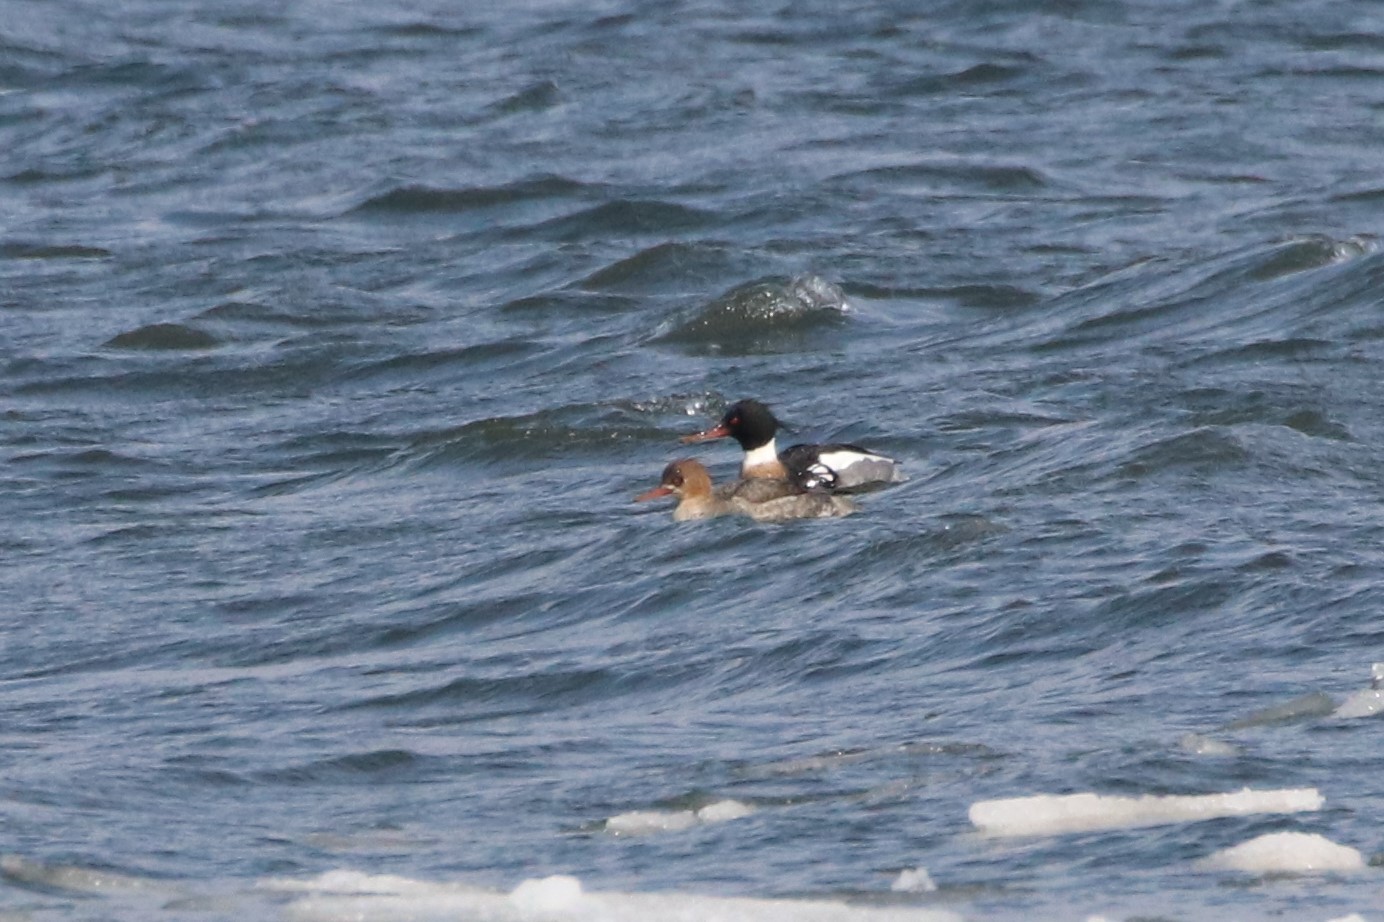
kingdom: Animalia
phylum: Chordata
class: Aves
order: Anseriformes
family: Anatidae
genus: Mergus
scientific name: Mergus serrator
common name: Red-breasted merganser
